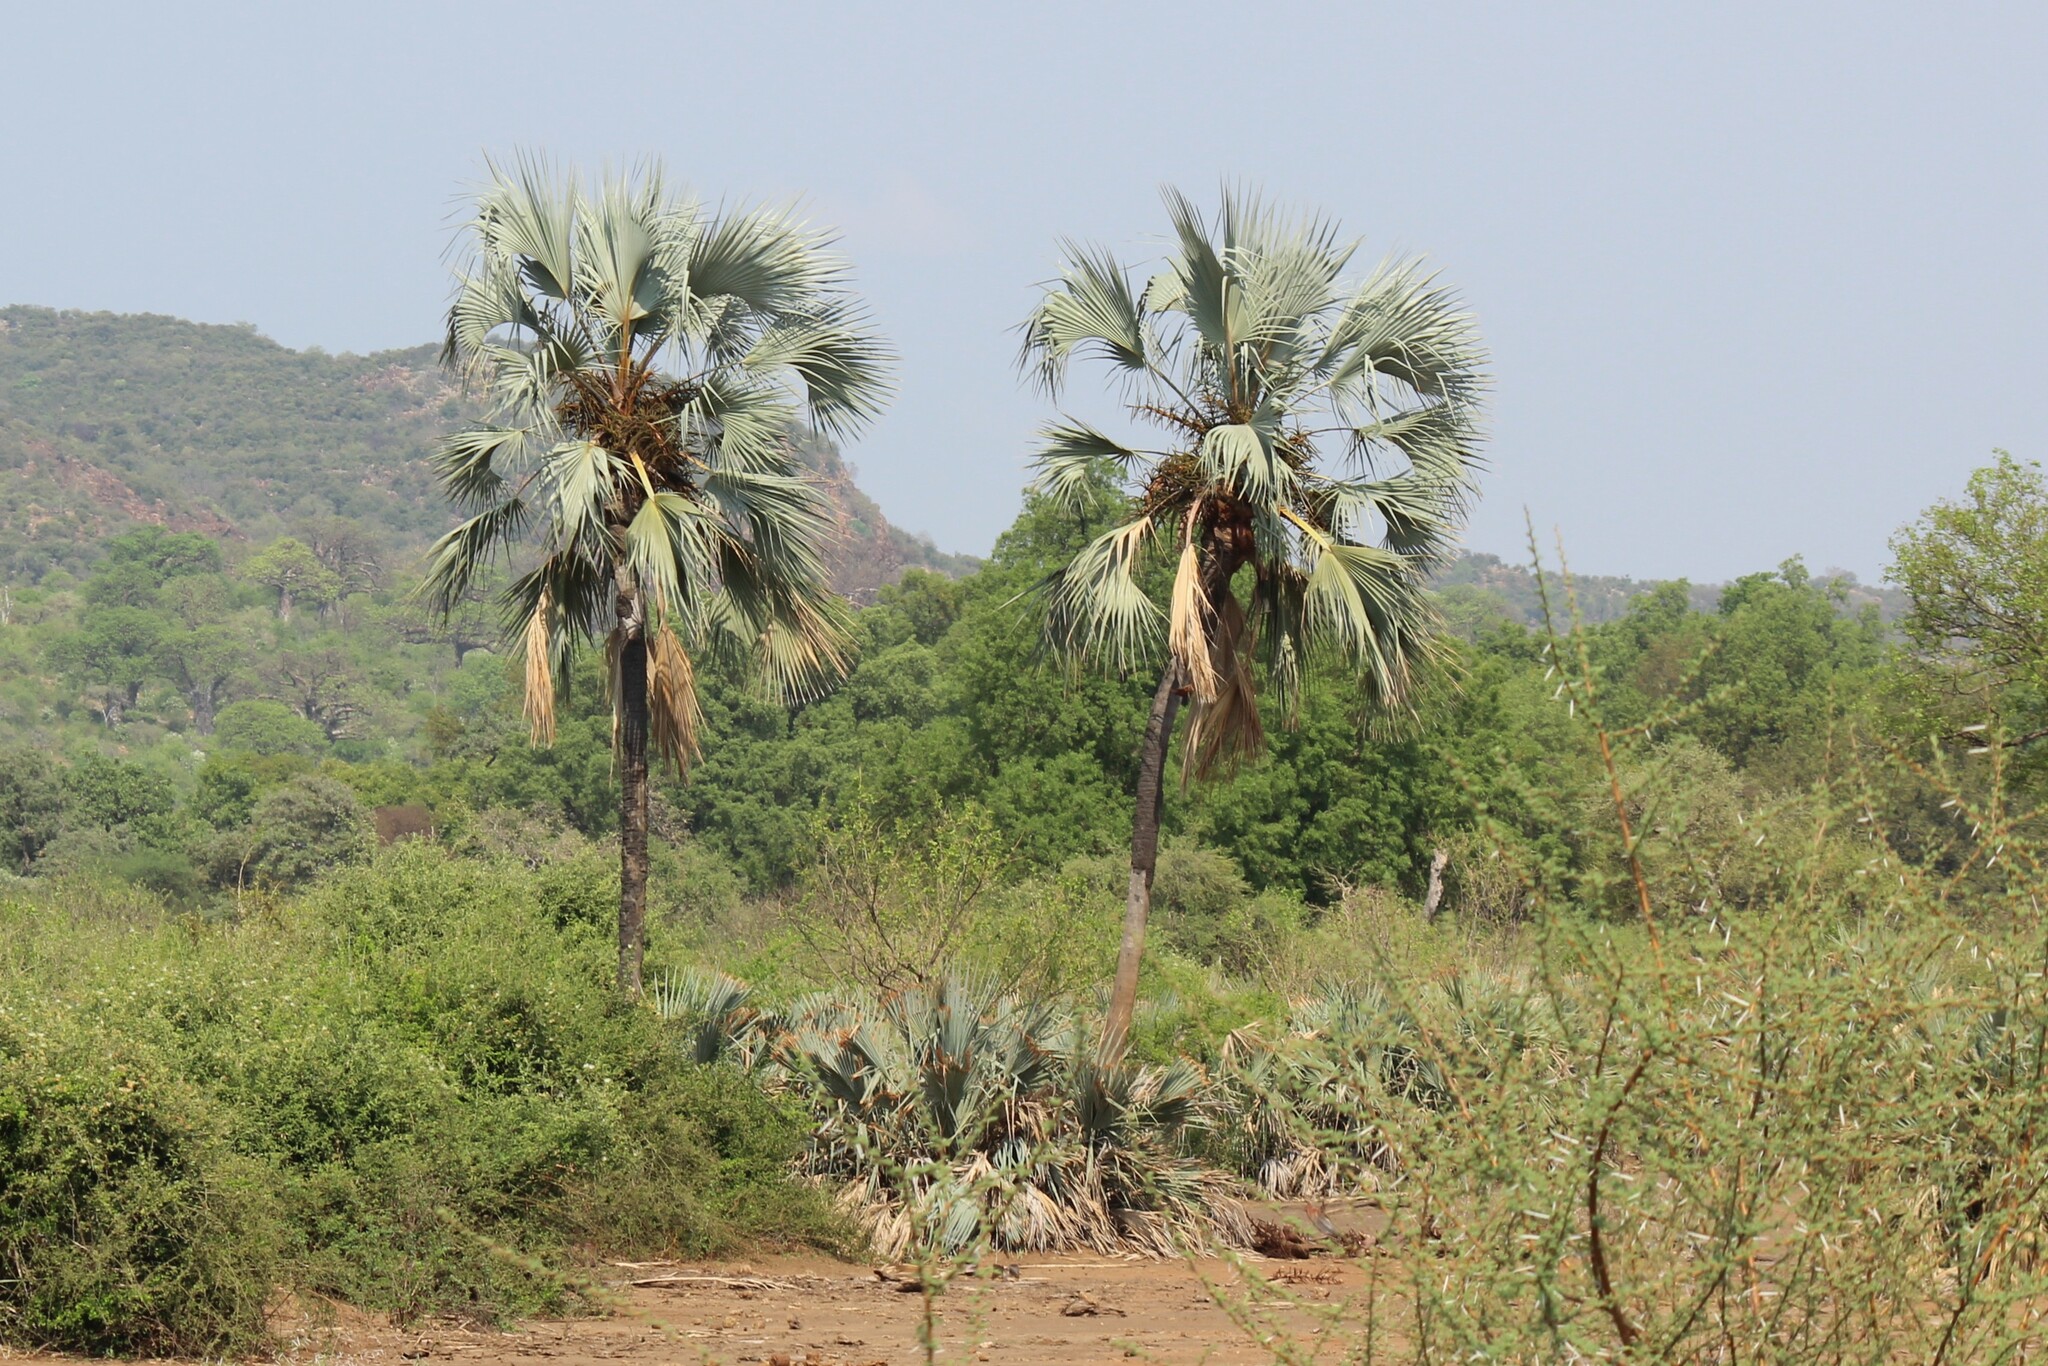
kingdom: Plantae
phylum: Tracheophyta
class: Liliopsida
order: Arecales
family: Arecaceae
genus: Hyphaene
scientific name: Hyphaene petersiana
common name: African ivory nut palm
